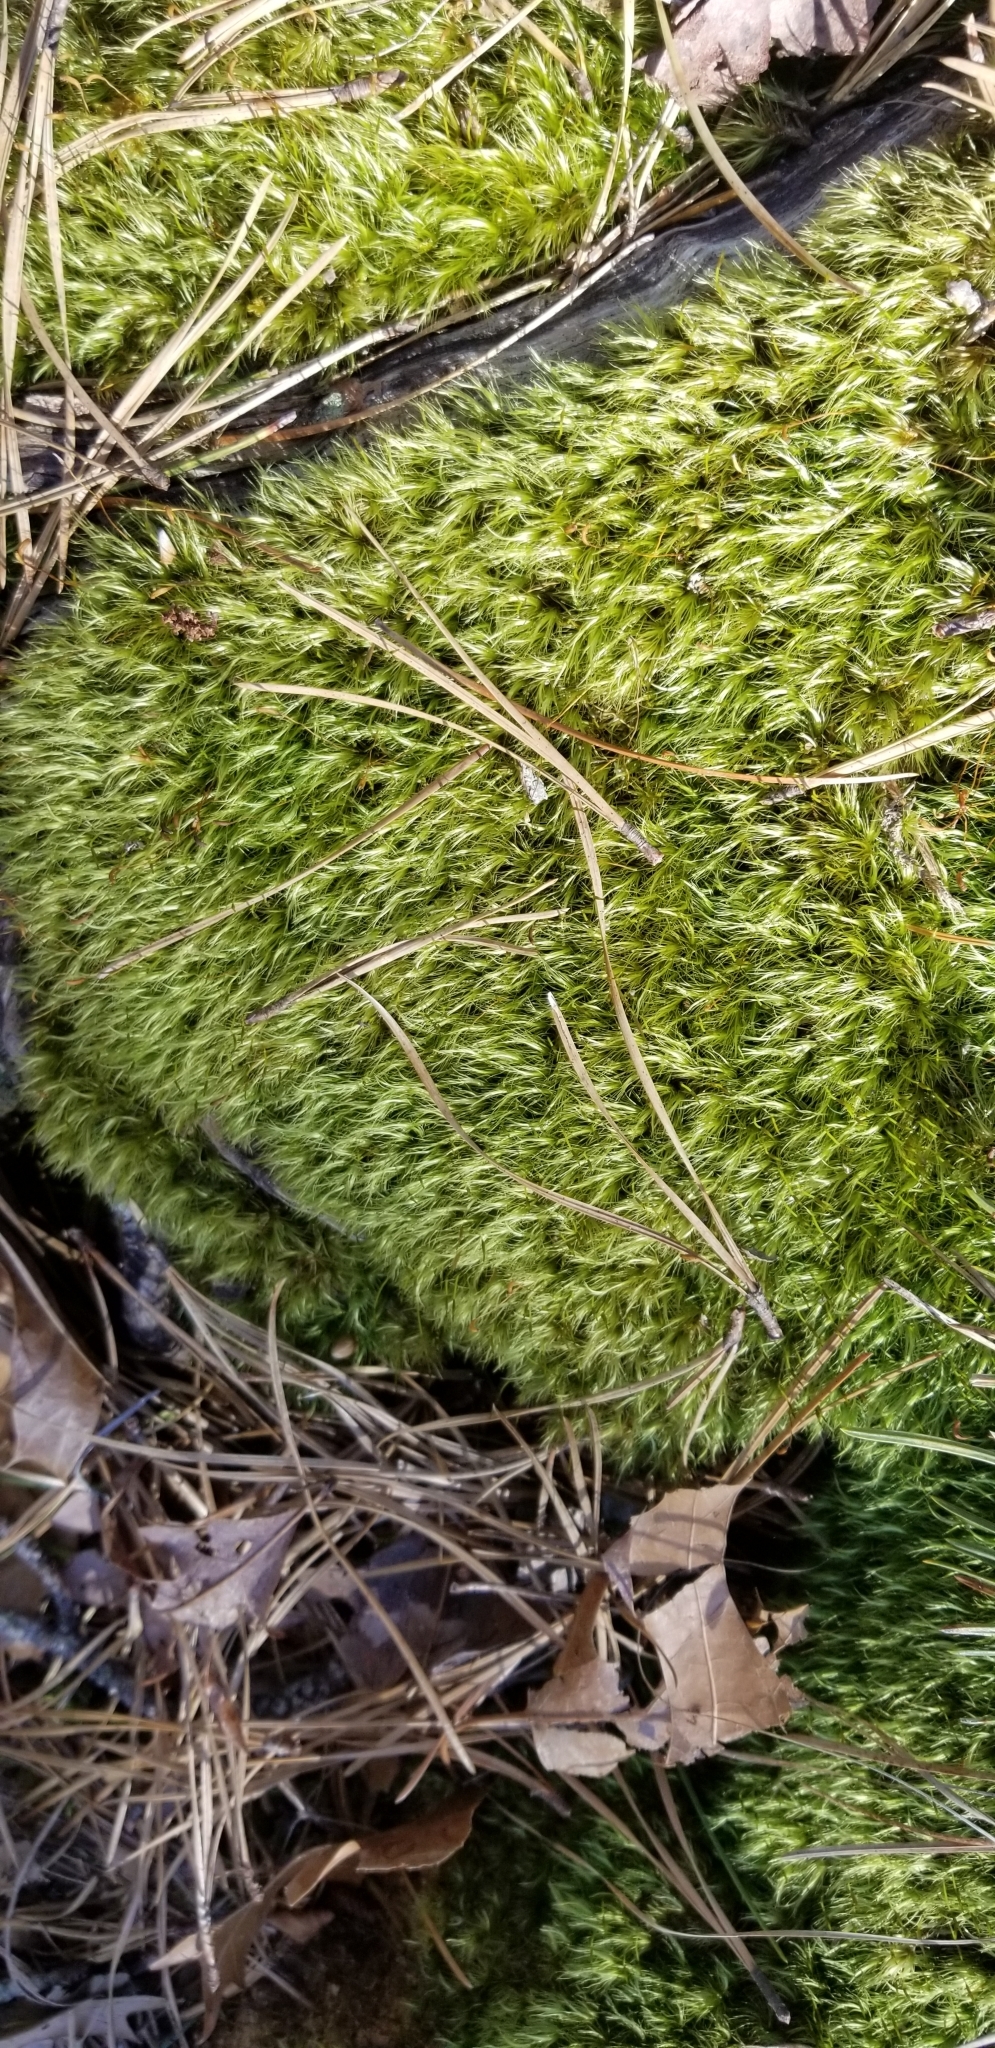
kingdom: Plantae
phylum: Bryophyta
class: Bryopsida
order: Dicranales
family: Dicranaceae
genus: Dicranum
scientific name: Dicranum scoparium
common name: Broom fork-moss
